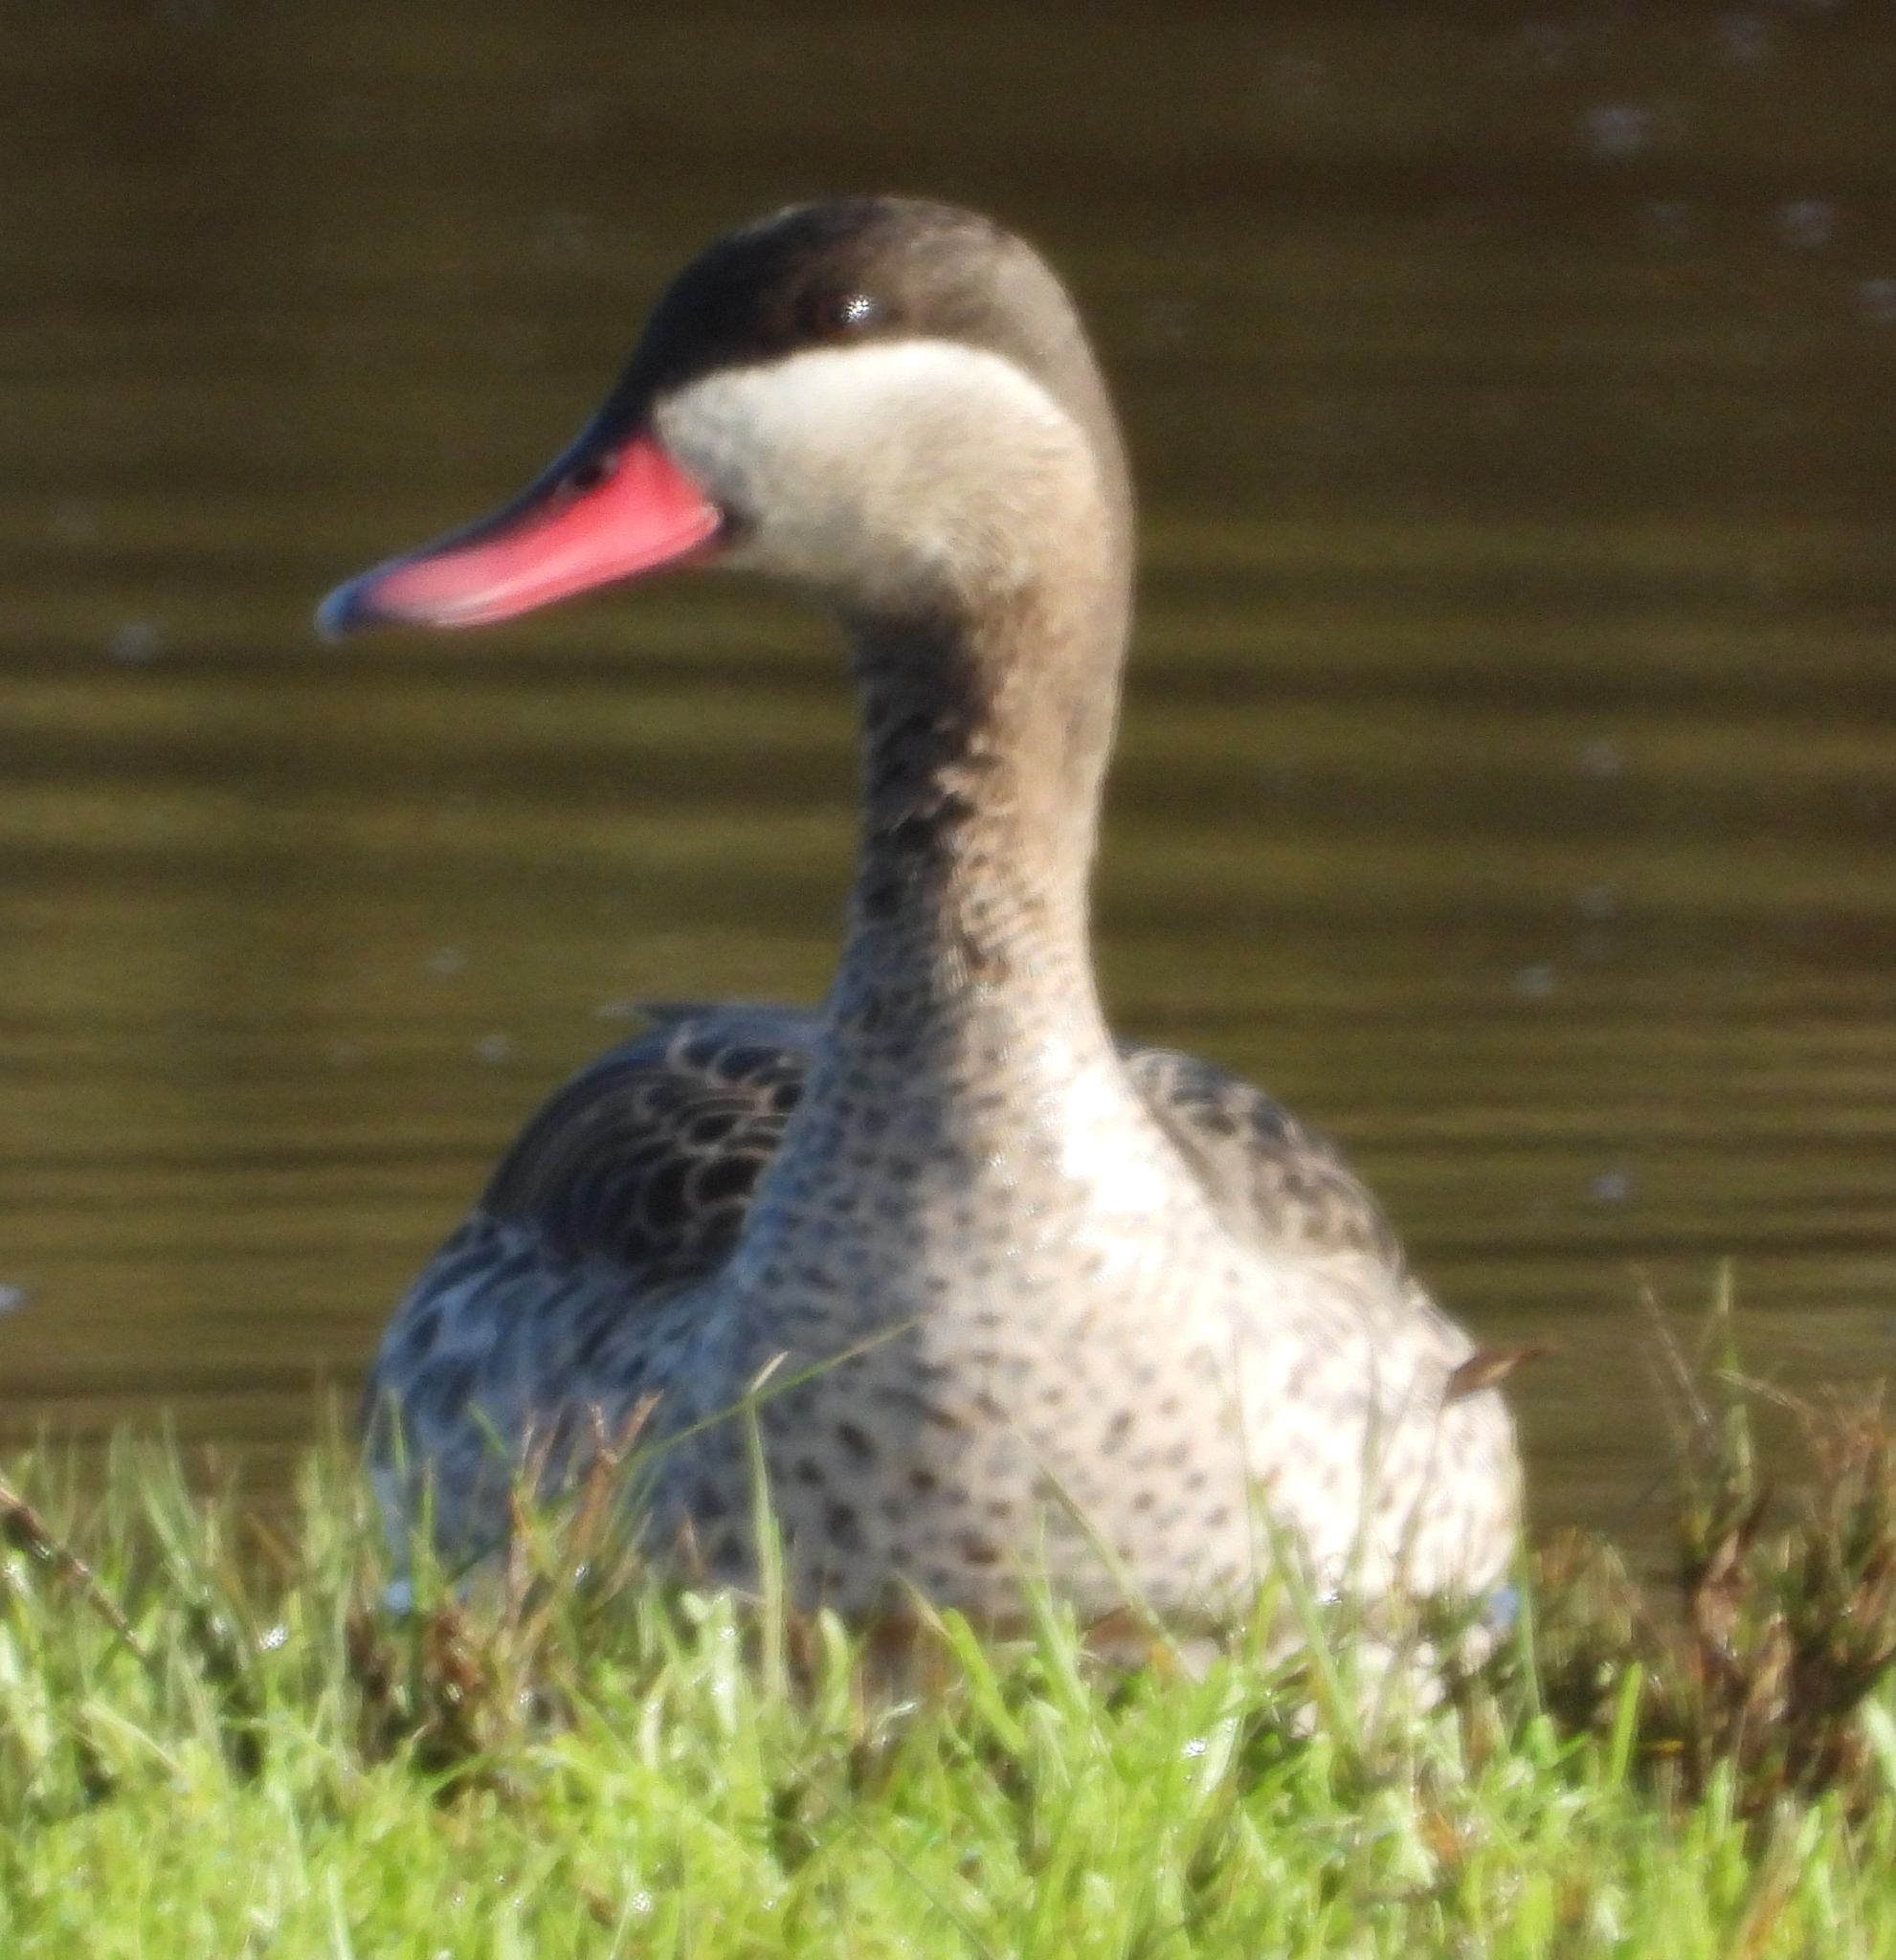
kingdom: Animalia
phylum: Chordata
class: Aves
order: Anseriformes
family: Anatidae
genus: Anas
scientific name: Anas erythrorhyncha
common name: Red-billed teal
